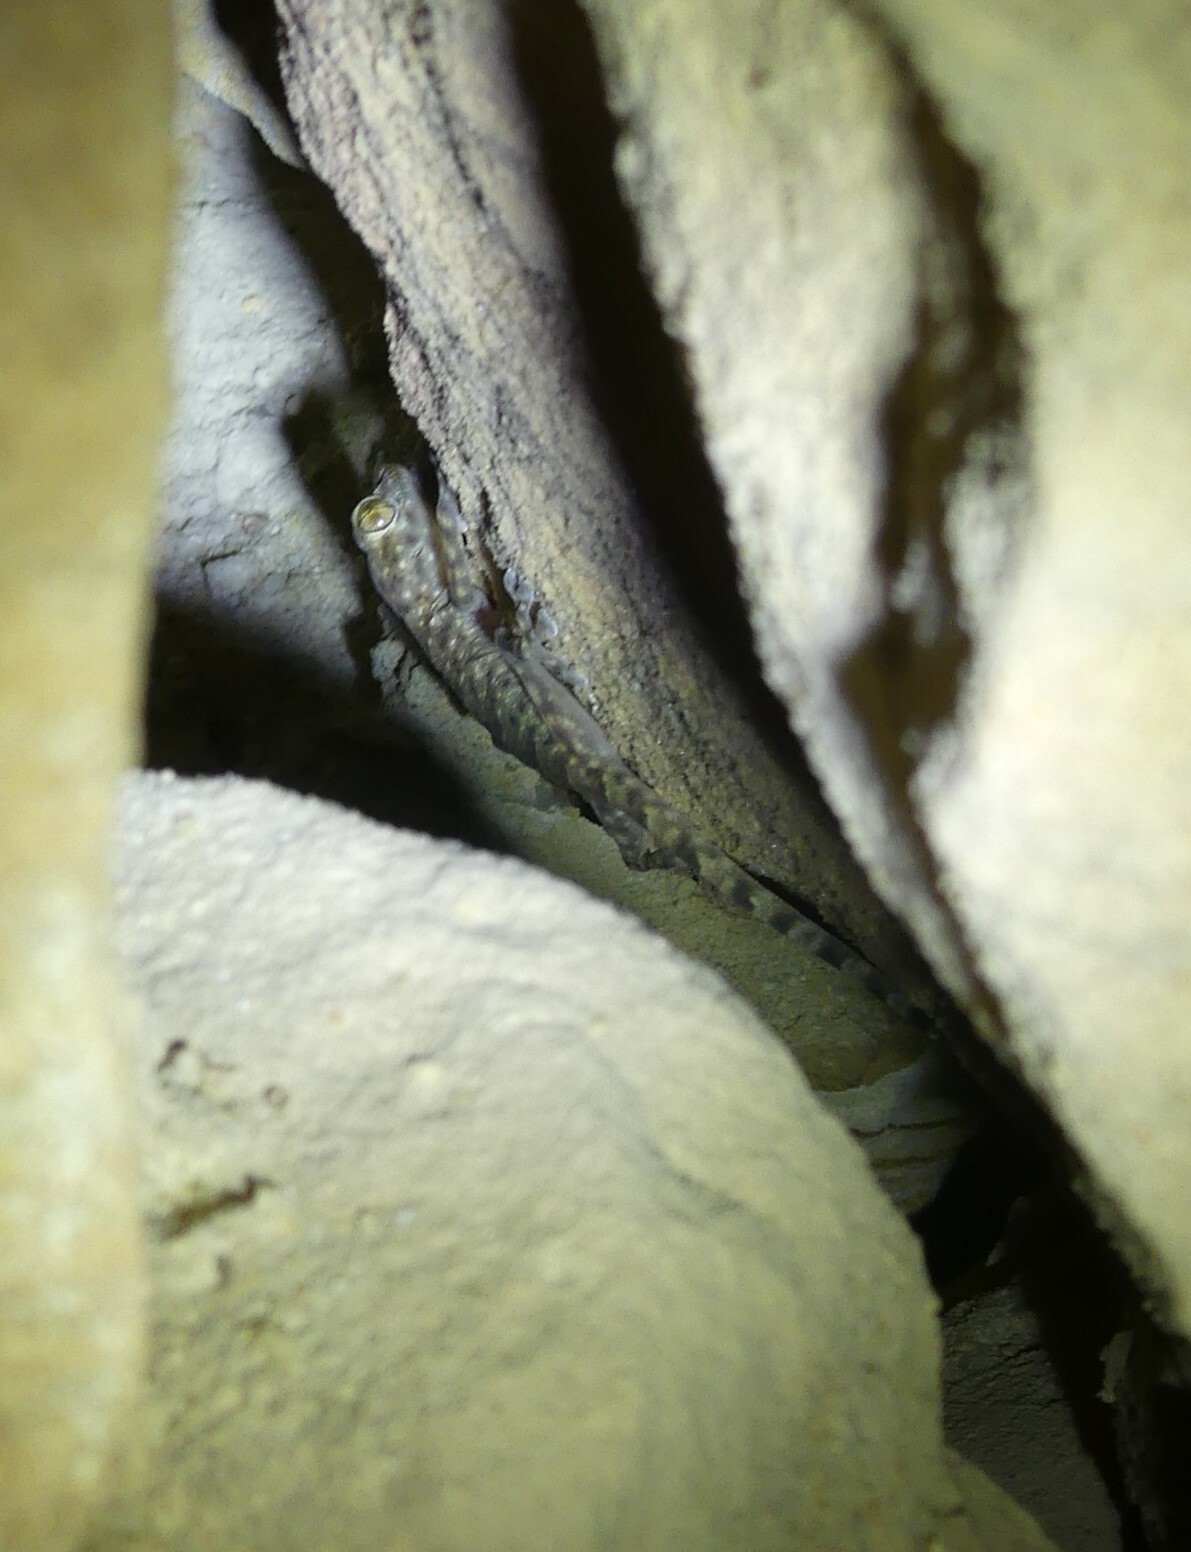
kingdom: Animalia
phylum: Chordata
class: Squamata
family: Phyllodactylidae
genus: Ptyodactylus
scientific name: Ptyodactylus hasselquistii
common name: Hasselquist’s fan-footed gecko
